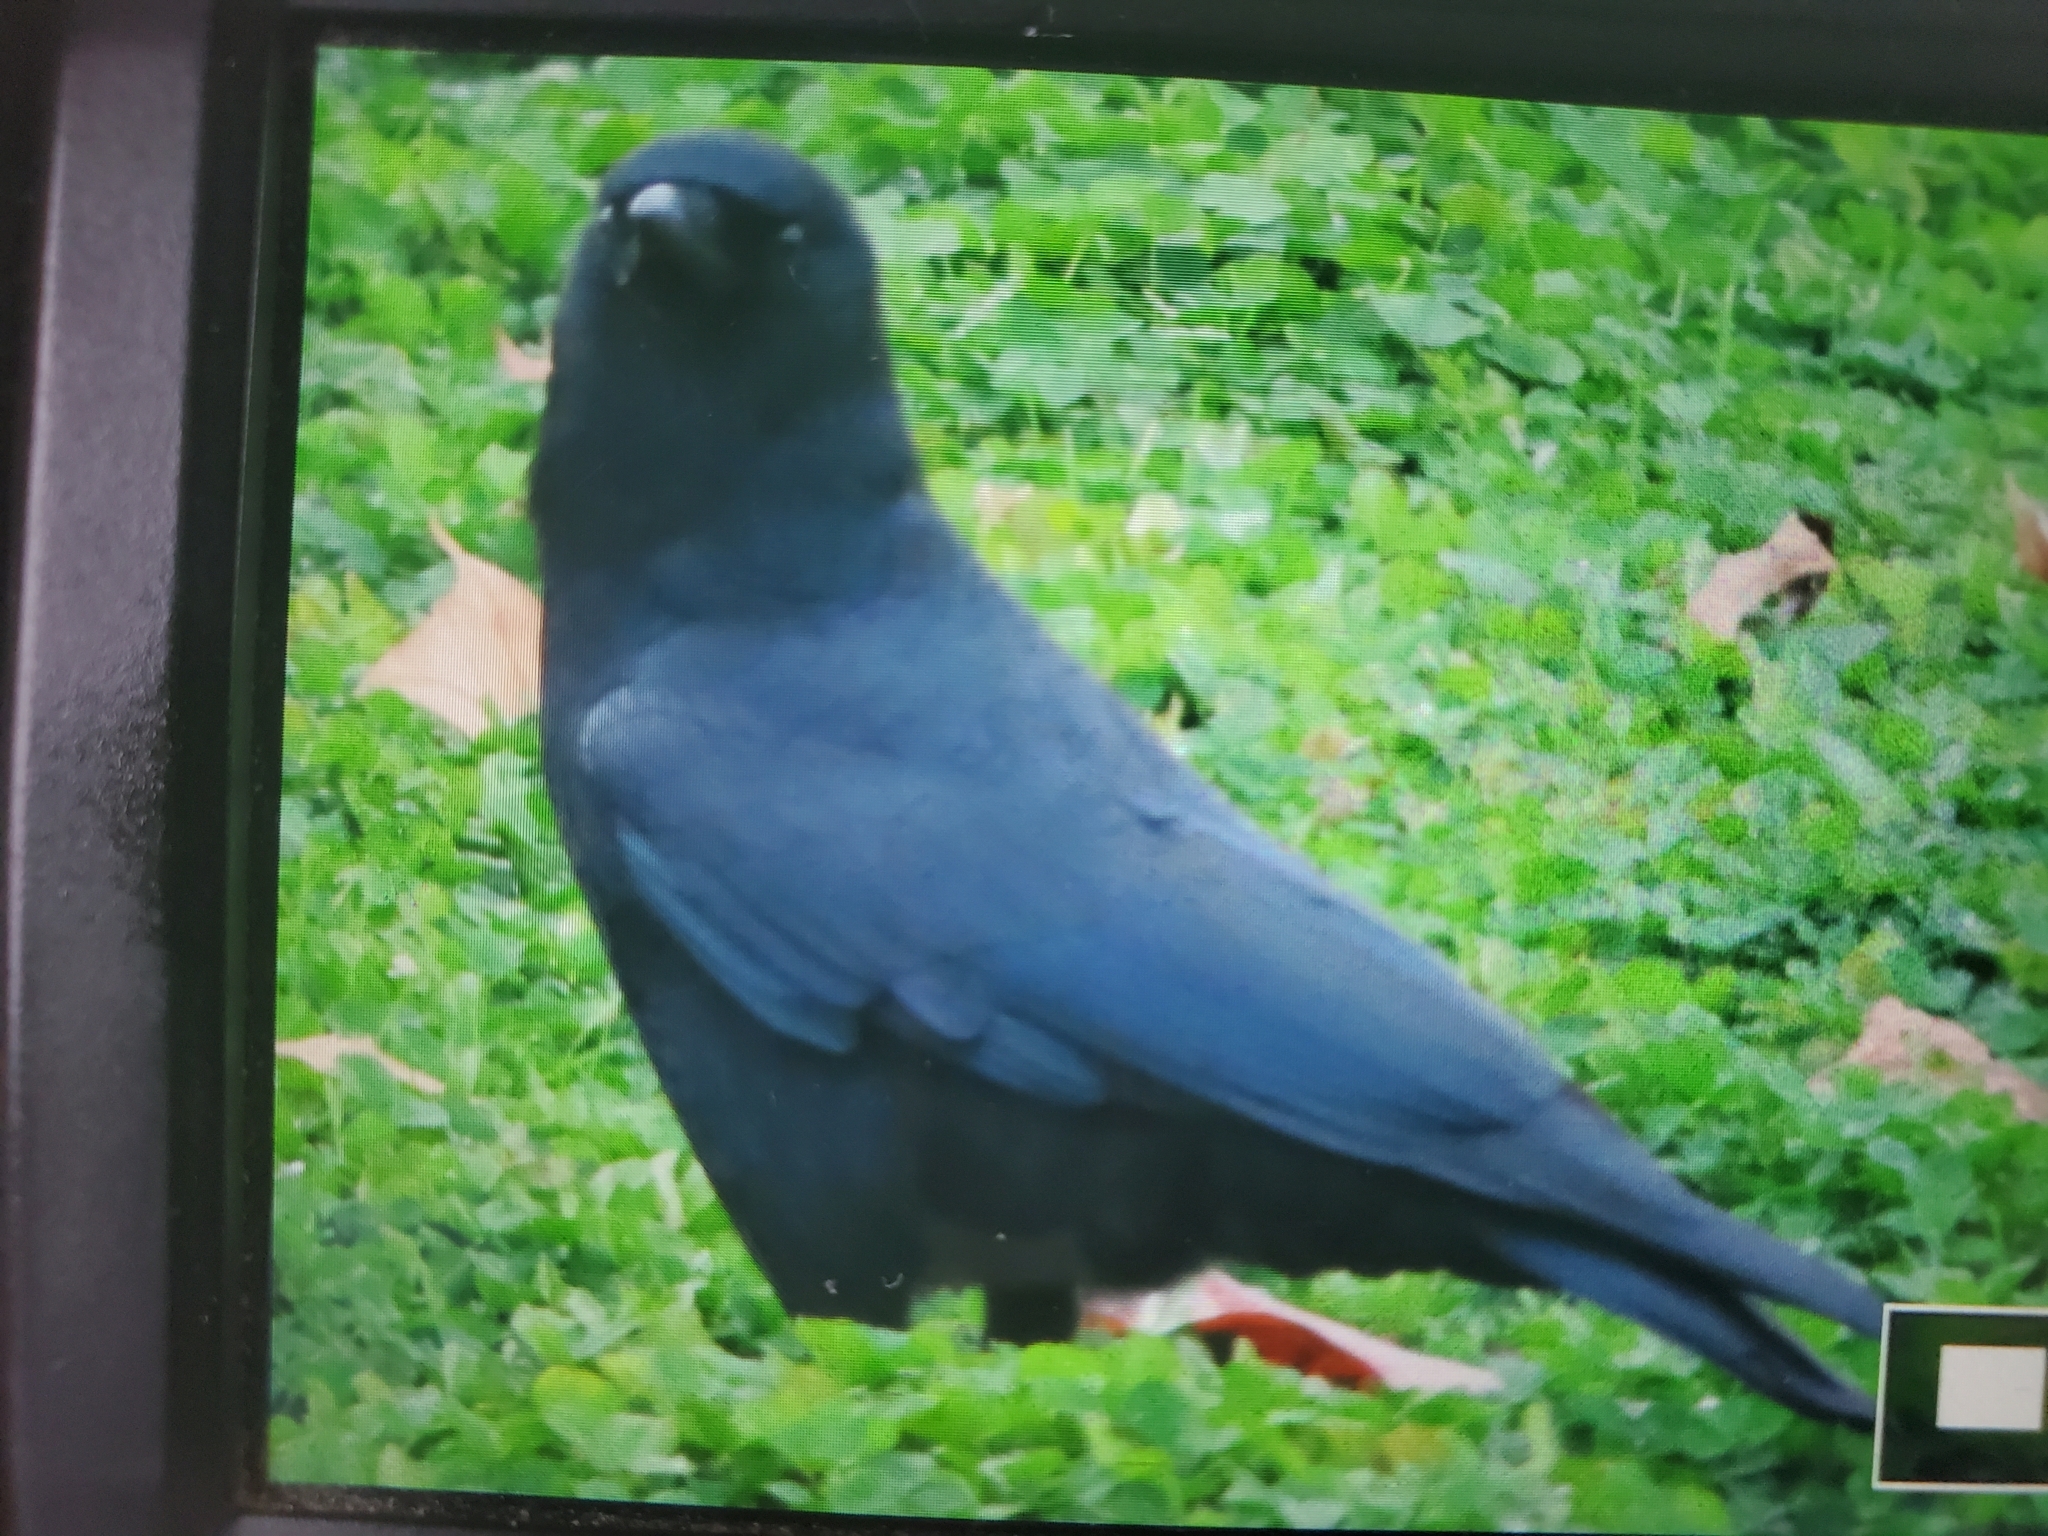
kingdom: Animalia
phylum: Chordata
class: Aves
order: Passeriformes
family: Corvidae
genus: Corvus
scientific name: Corvus brachyrhynchos
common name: American crow
